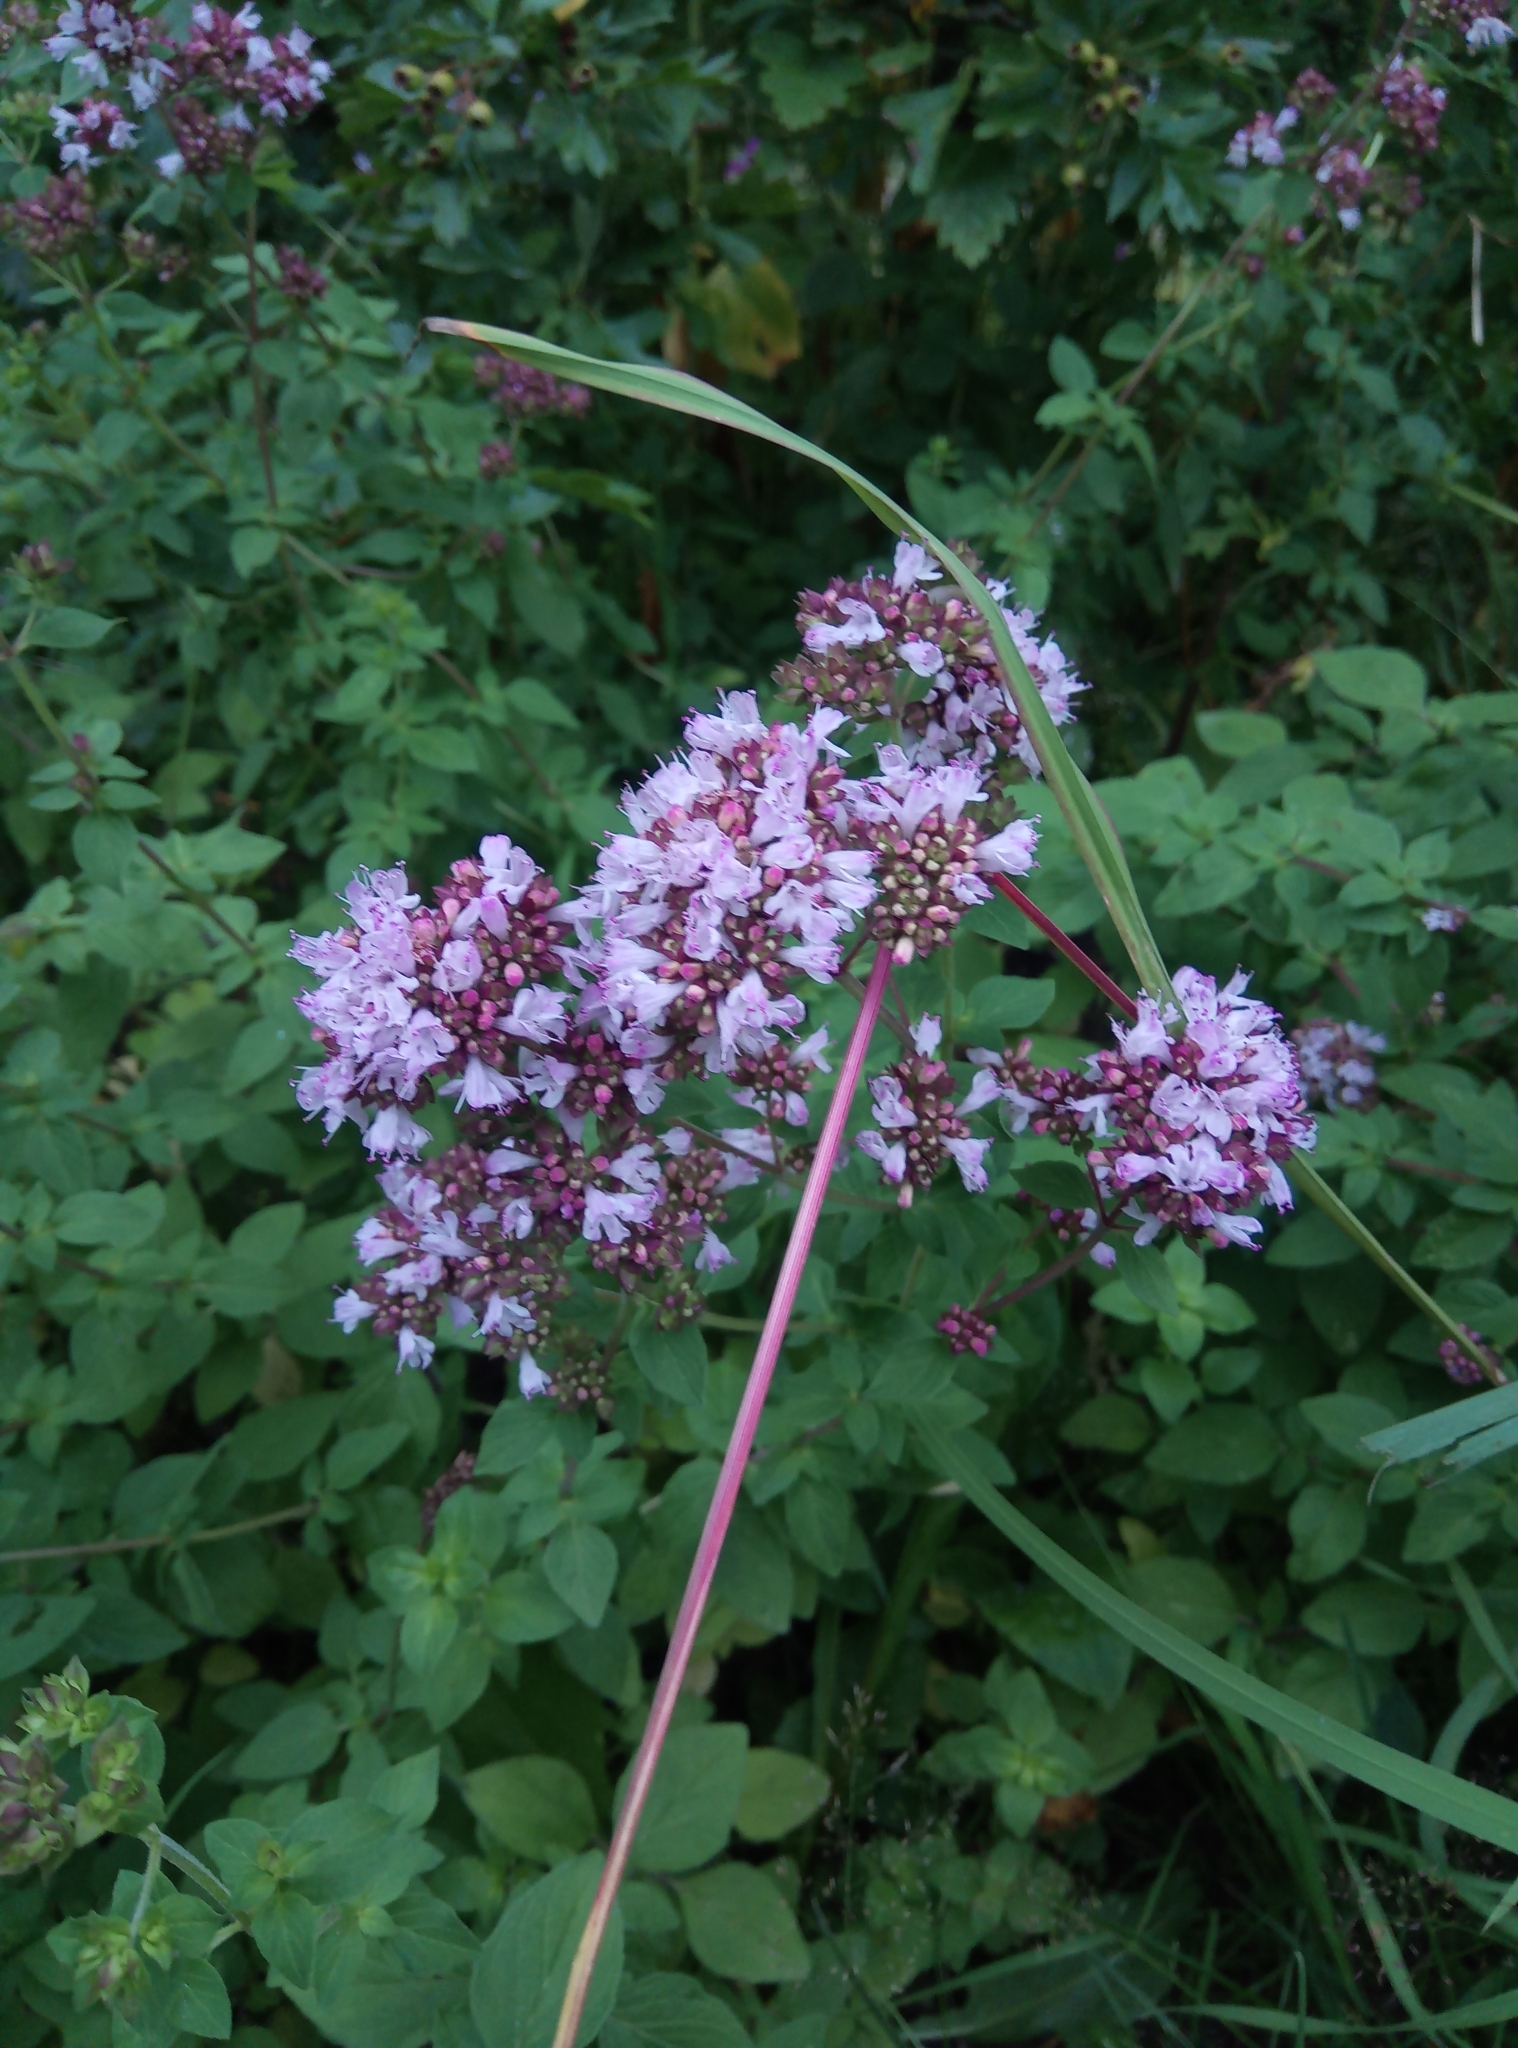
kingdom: Plantae
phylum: Tracheophyta
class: Magnoliopsida
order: Lamiales
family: Lamiaceae
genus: Origanum
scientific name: Origanum vulgare
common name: Wild marjoram
